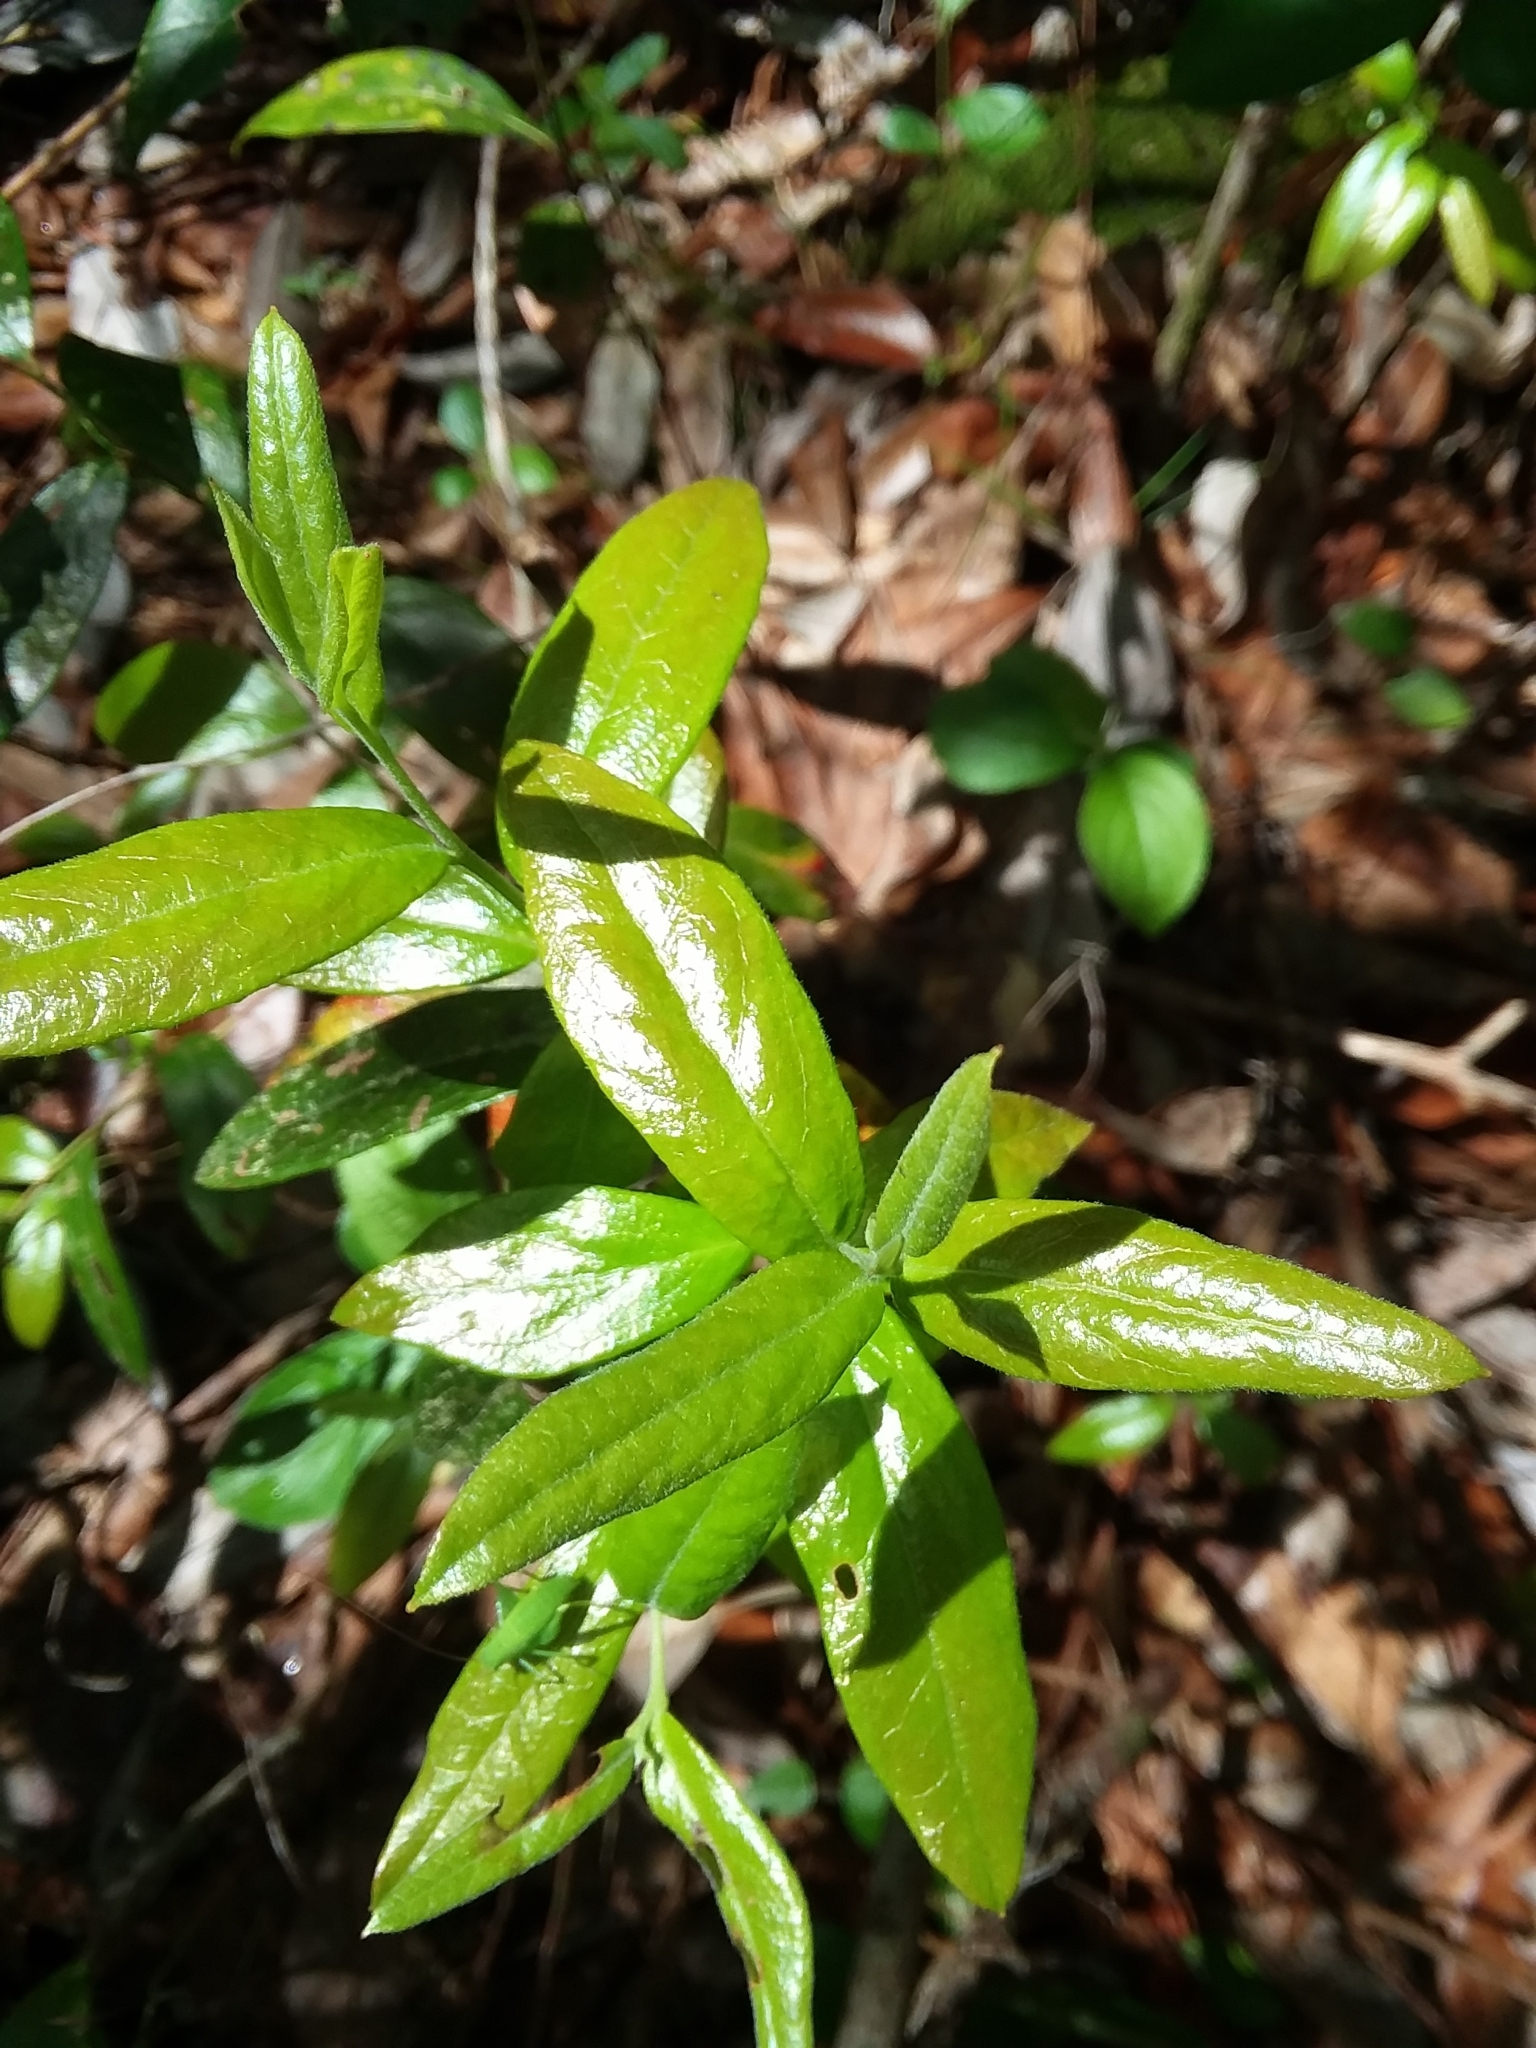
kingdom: Plantae
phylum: Tracheophyta
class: Magnoliopsida
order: Ericales
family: Ericaceae
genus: Gaylussacia
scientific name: Gaylussacia mosieri
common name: Hirsute huckleberry
